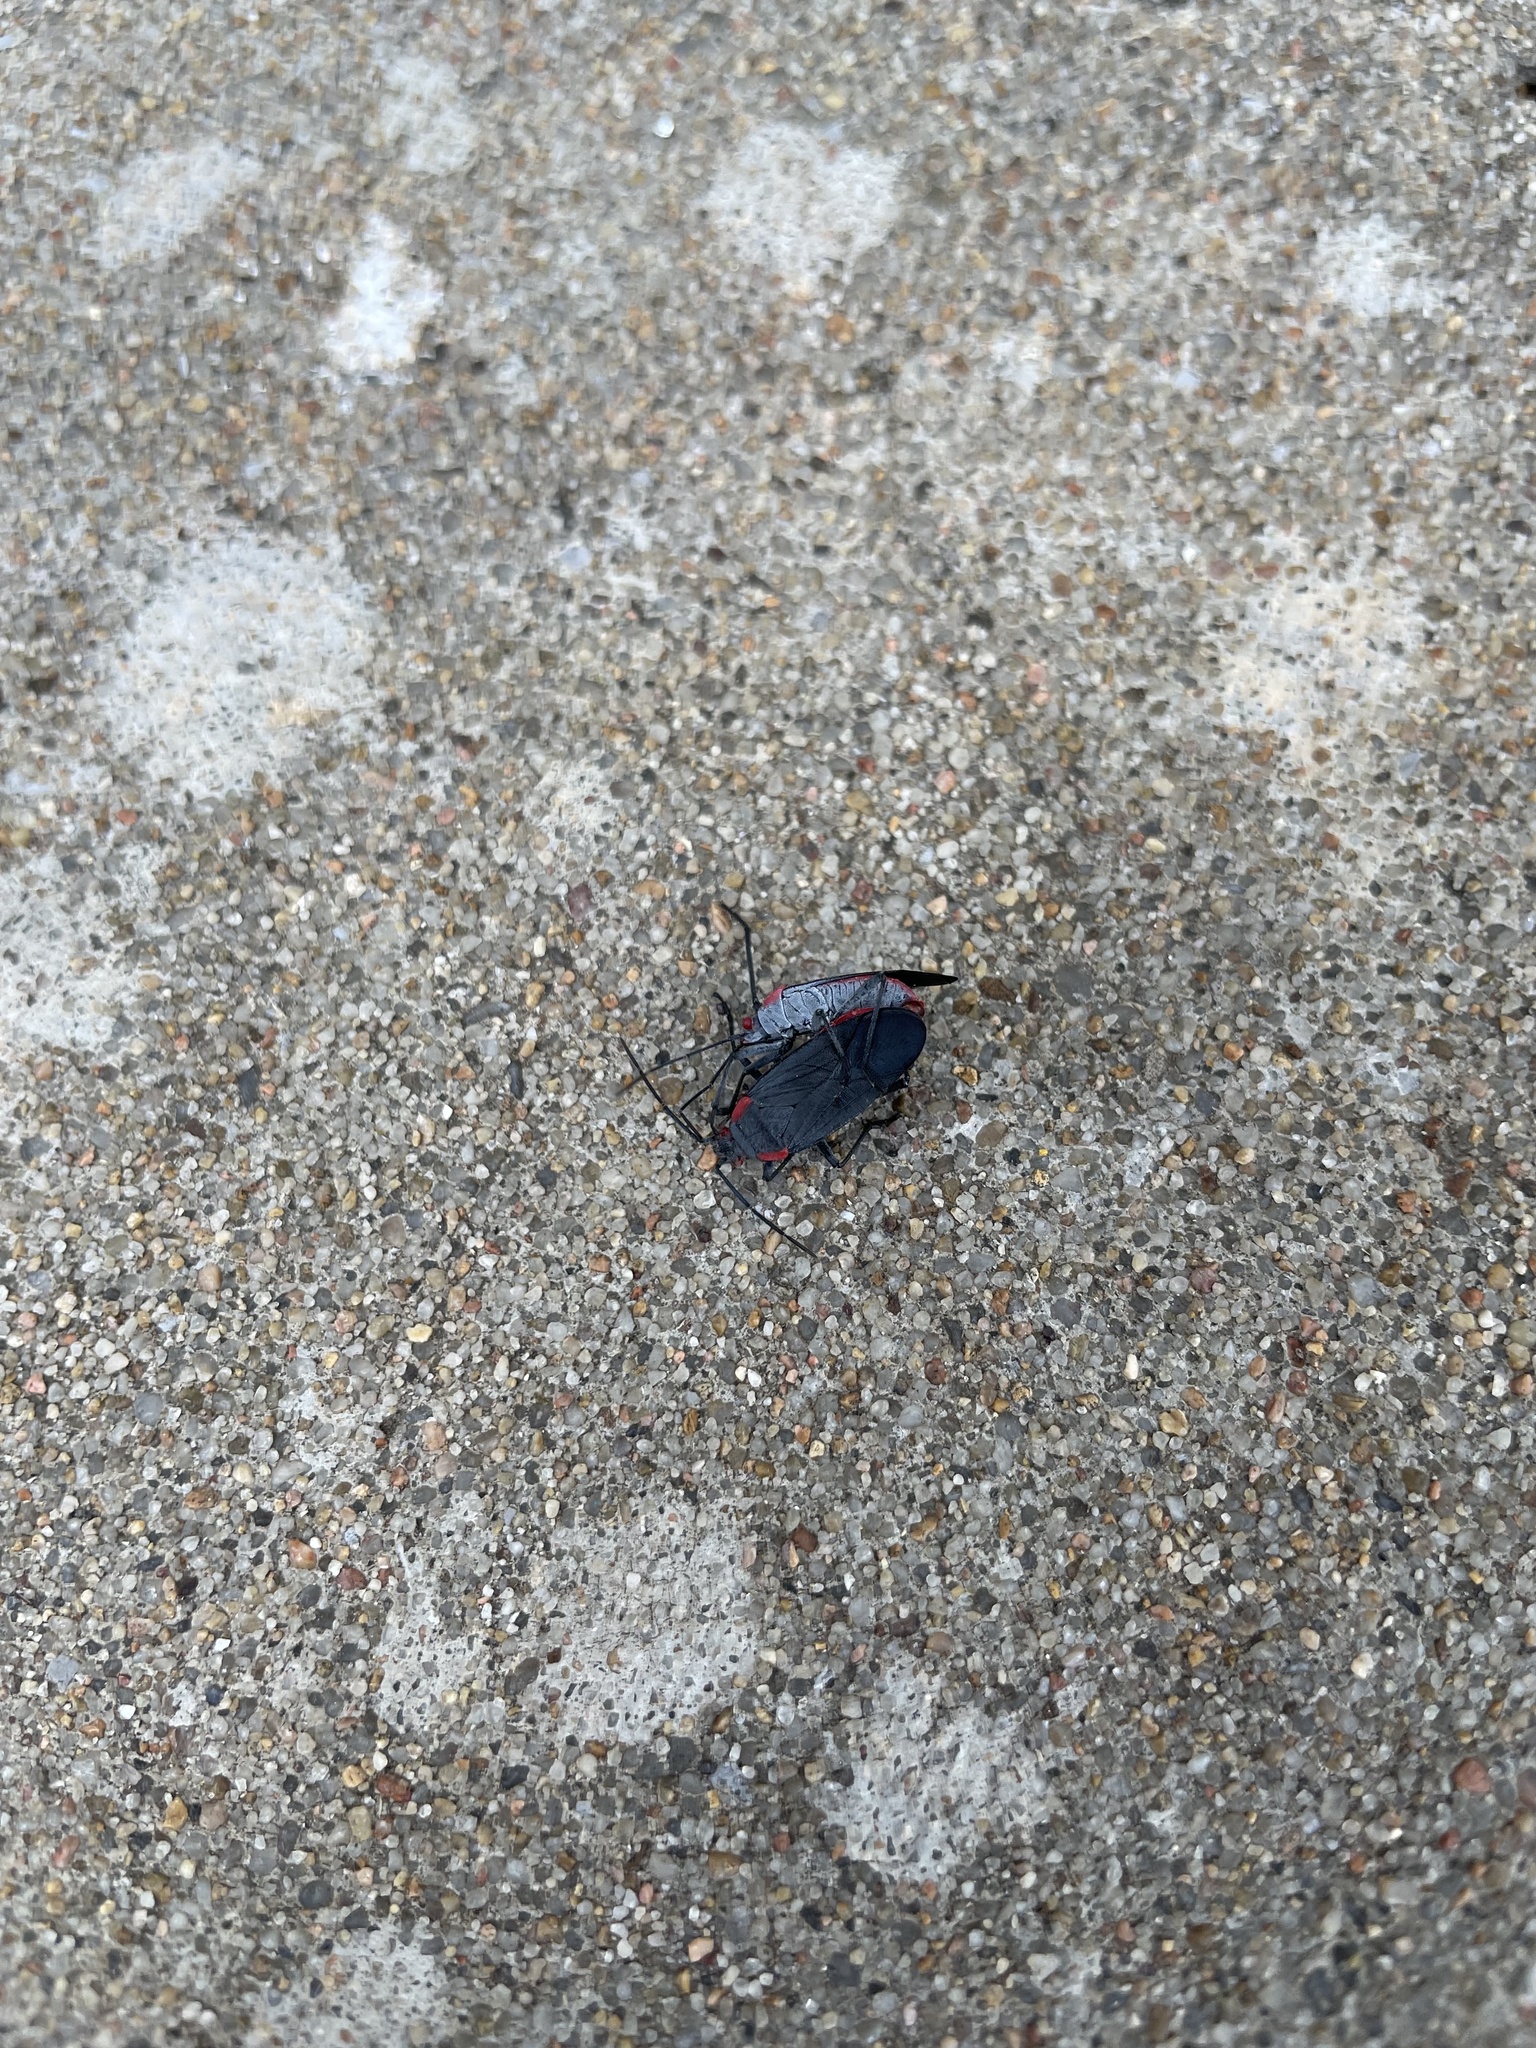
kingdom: Animalia
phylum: Arthropoda
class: Insecta
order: Hemiptera
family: Rhopalidae
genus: Jadera
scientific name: Jadera haematoloma
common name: Red-shouldered bug
